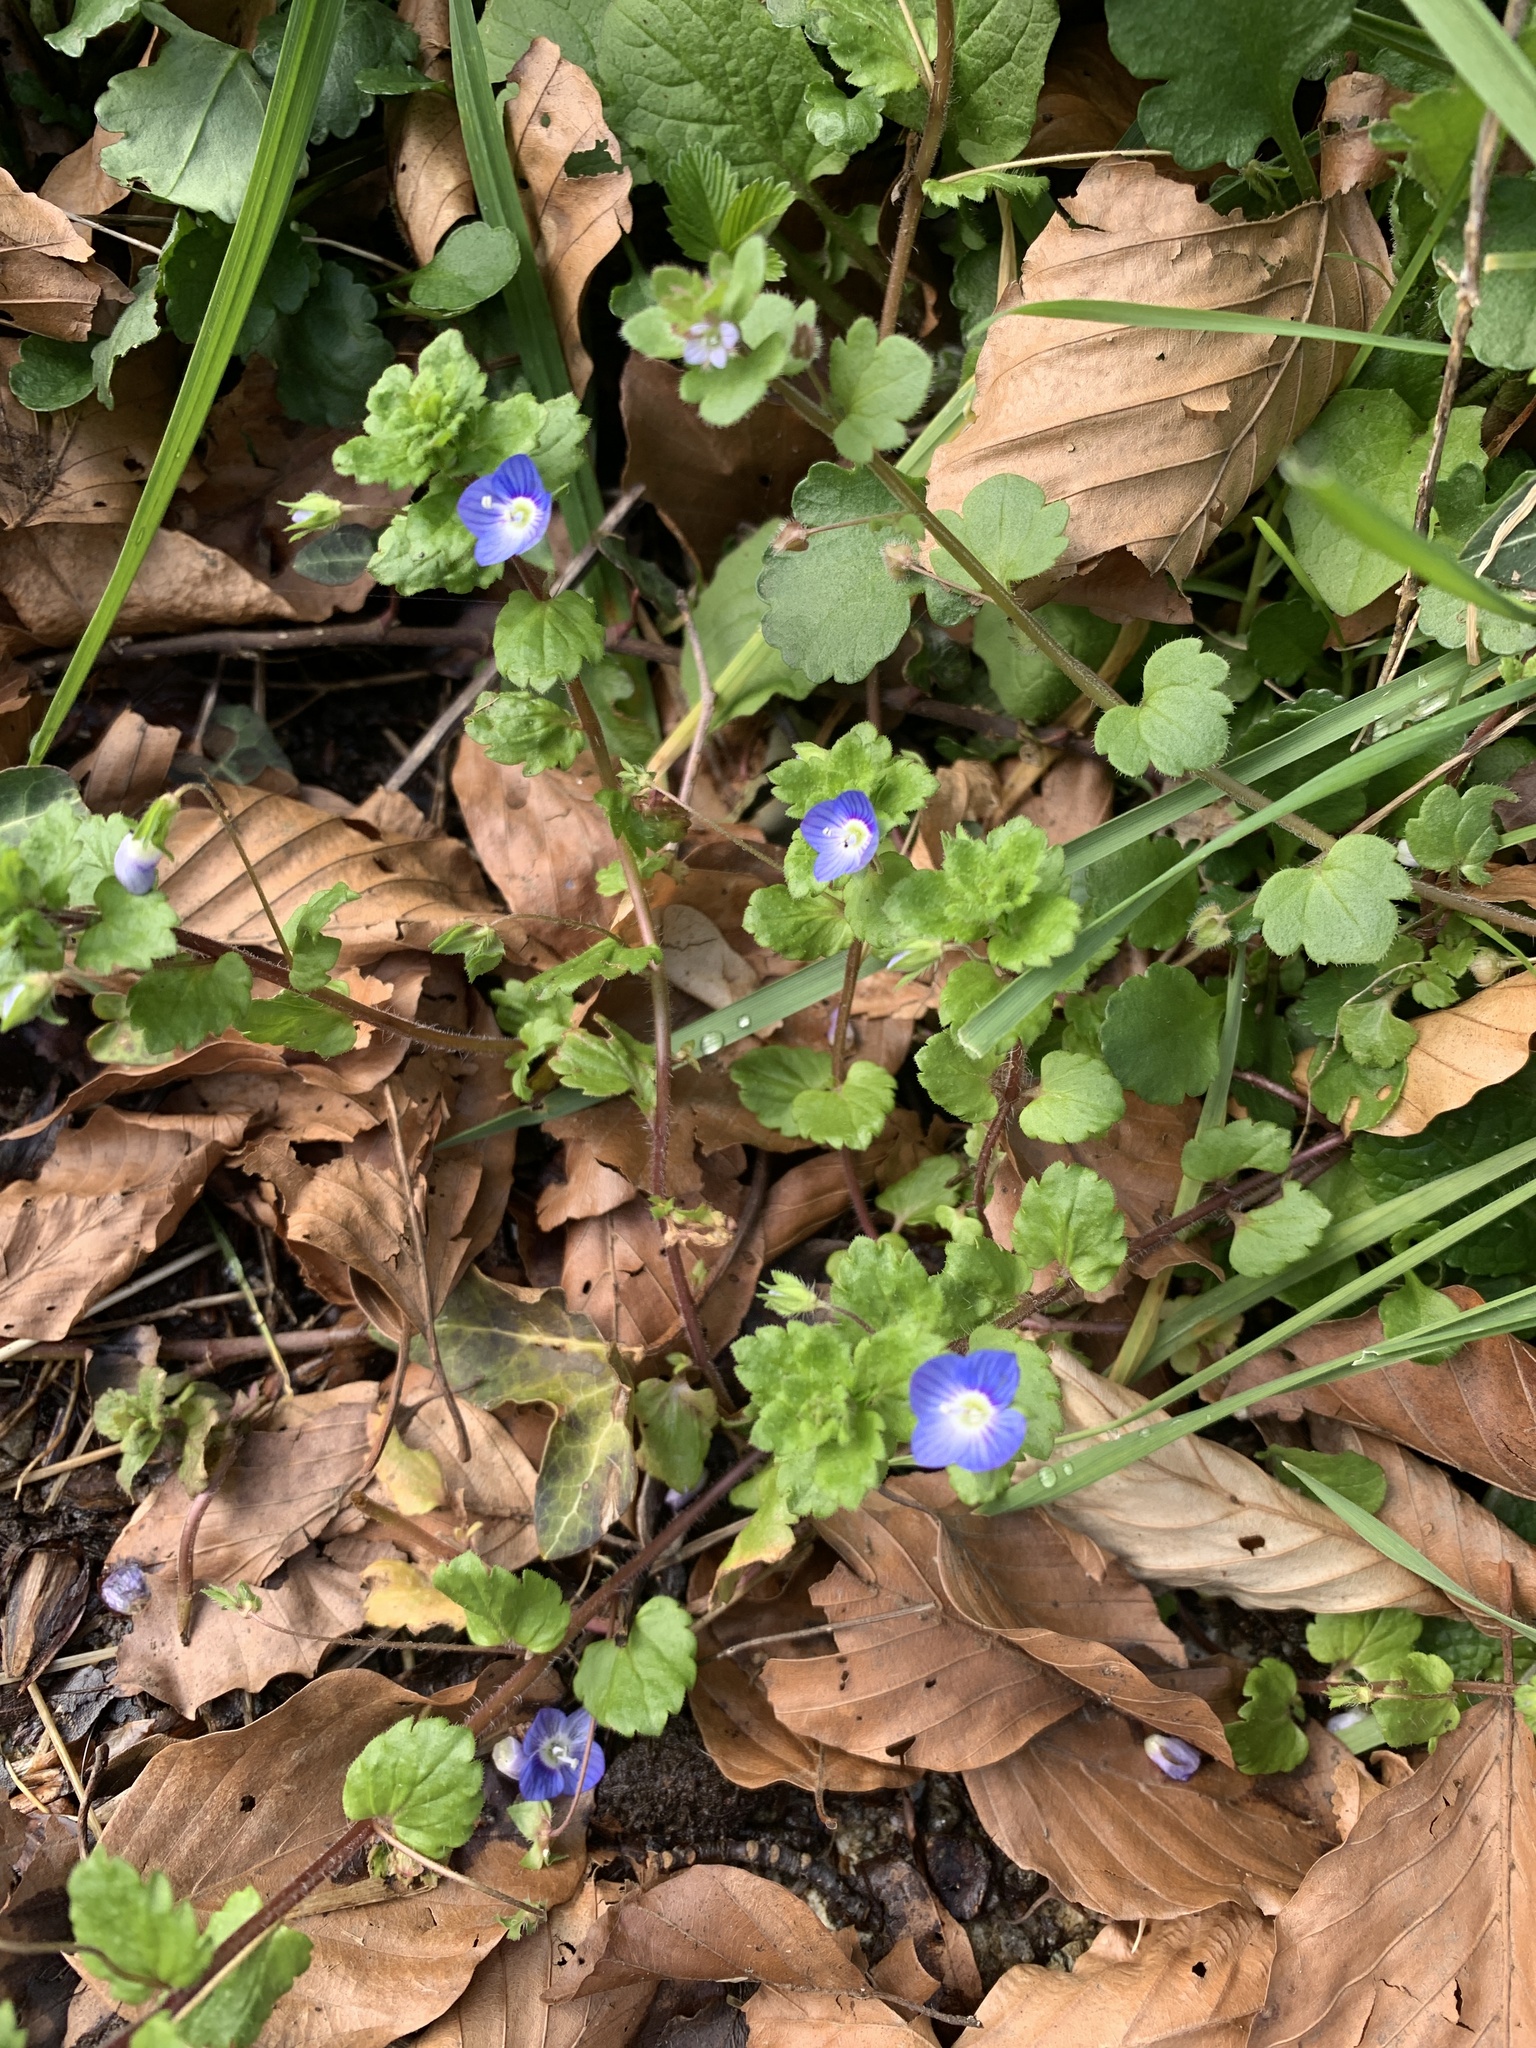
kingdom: Plantae
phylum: Tracheophyta
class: Magnoliopsida
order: Lamiales
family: Plantaginaceae
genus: Veronica
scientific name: Veronica persica
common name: Common field-speedwell
